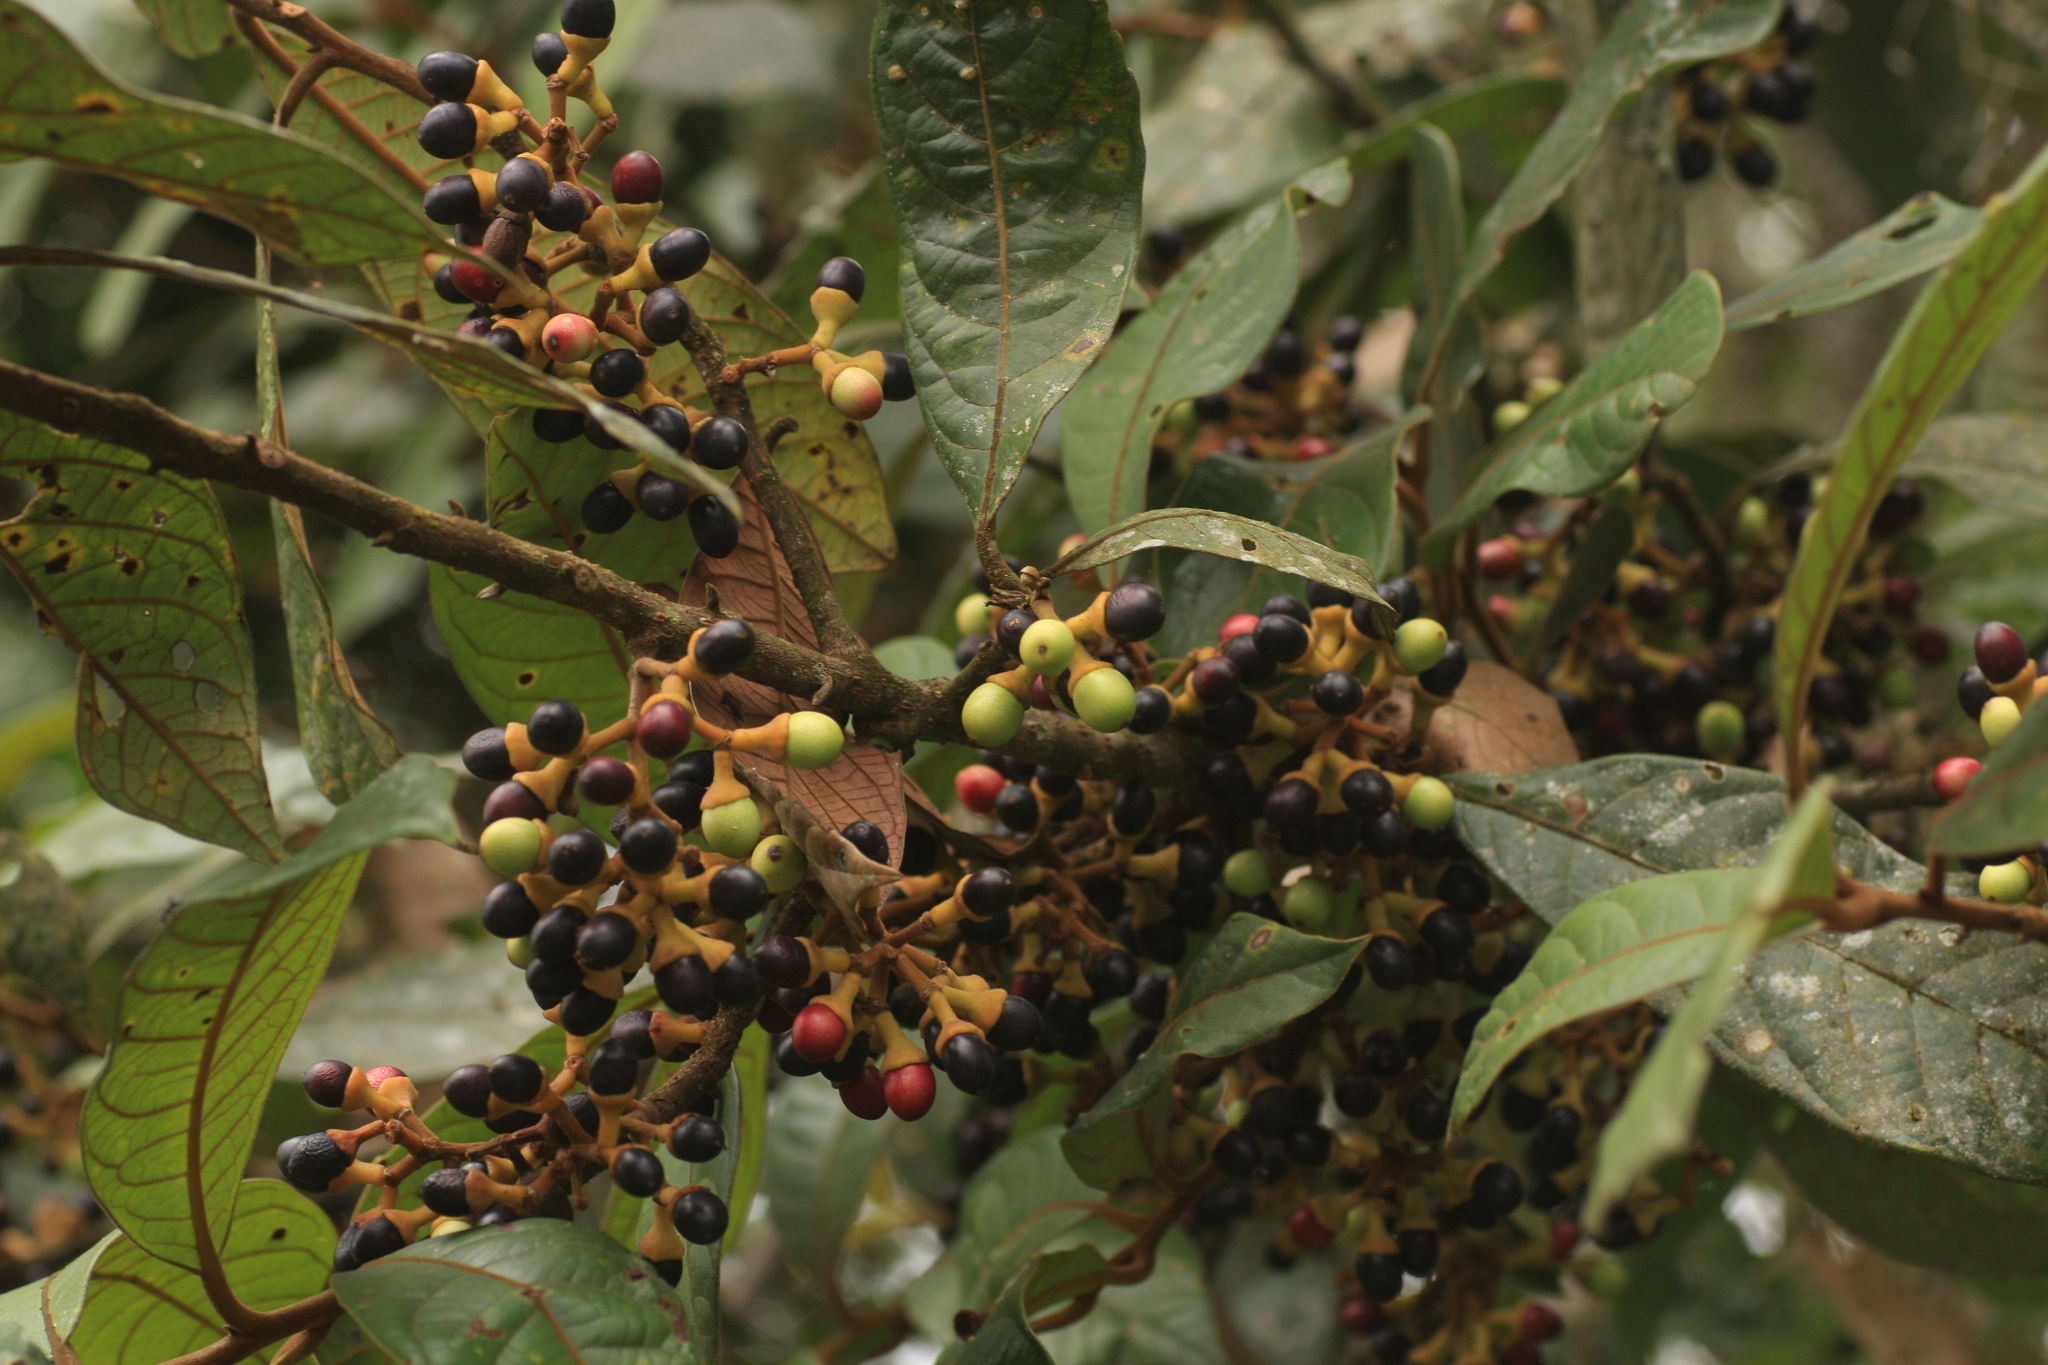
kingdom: Plantae
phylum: Tracheophyta
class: Magnoliopsida
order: Laurales
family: Lauraceae
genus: Litsea
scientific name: Litsea floribunda
